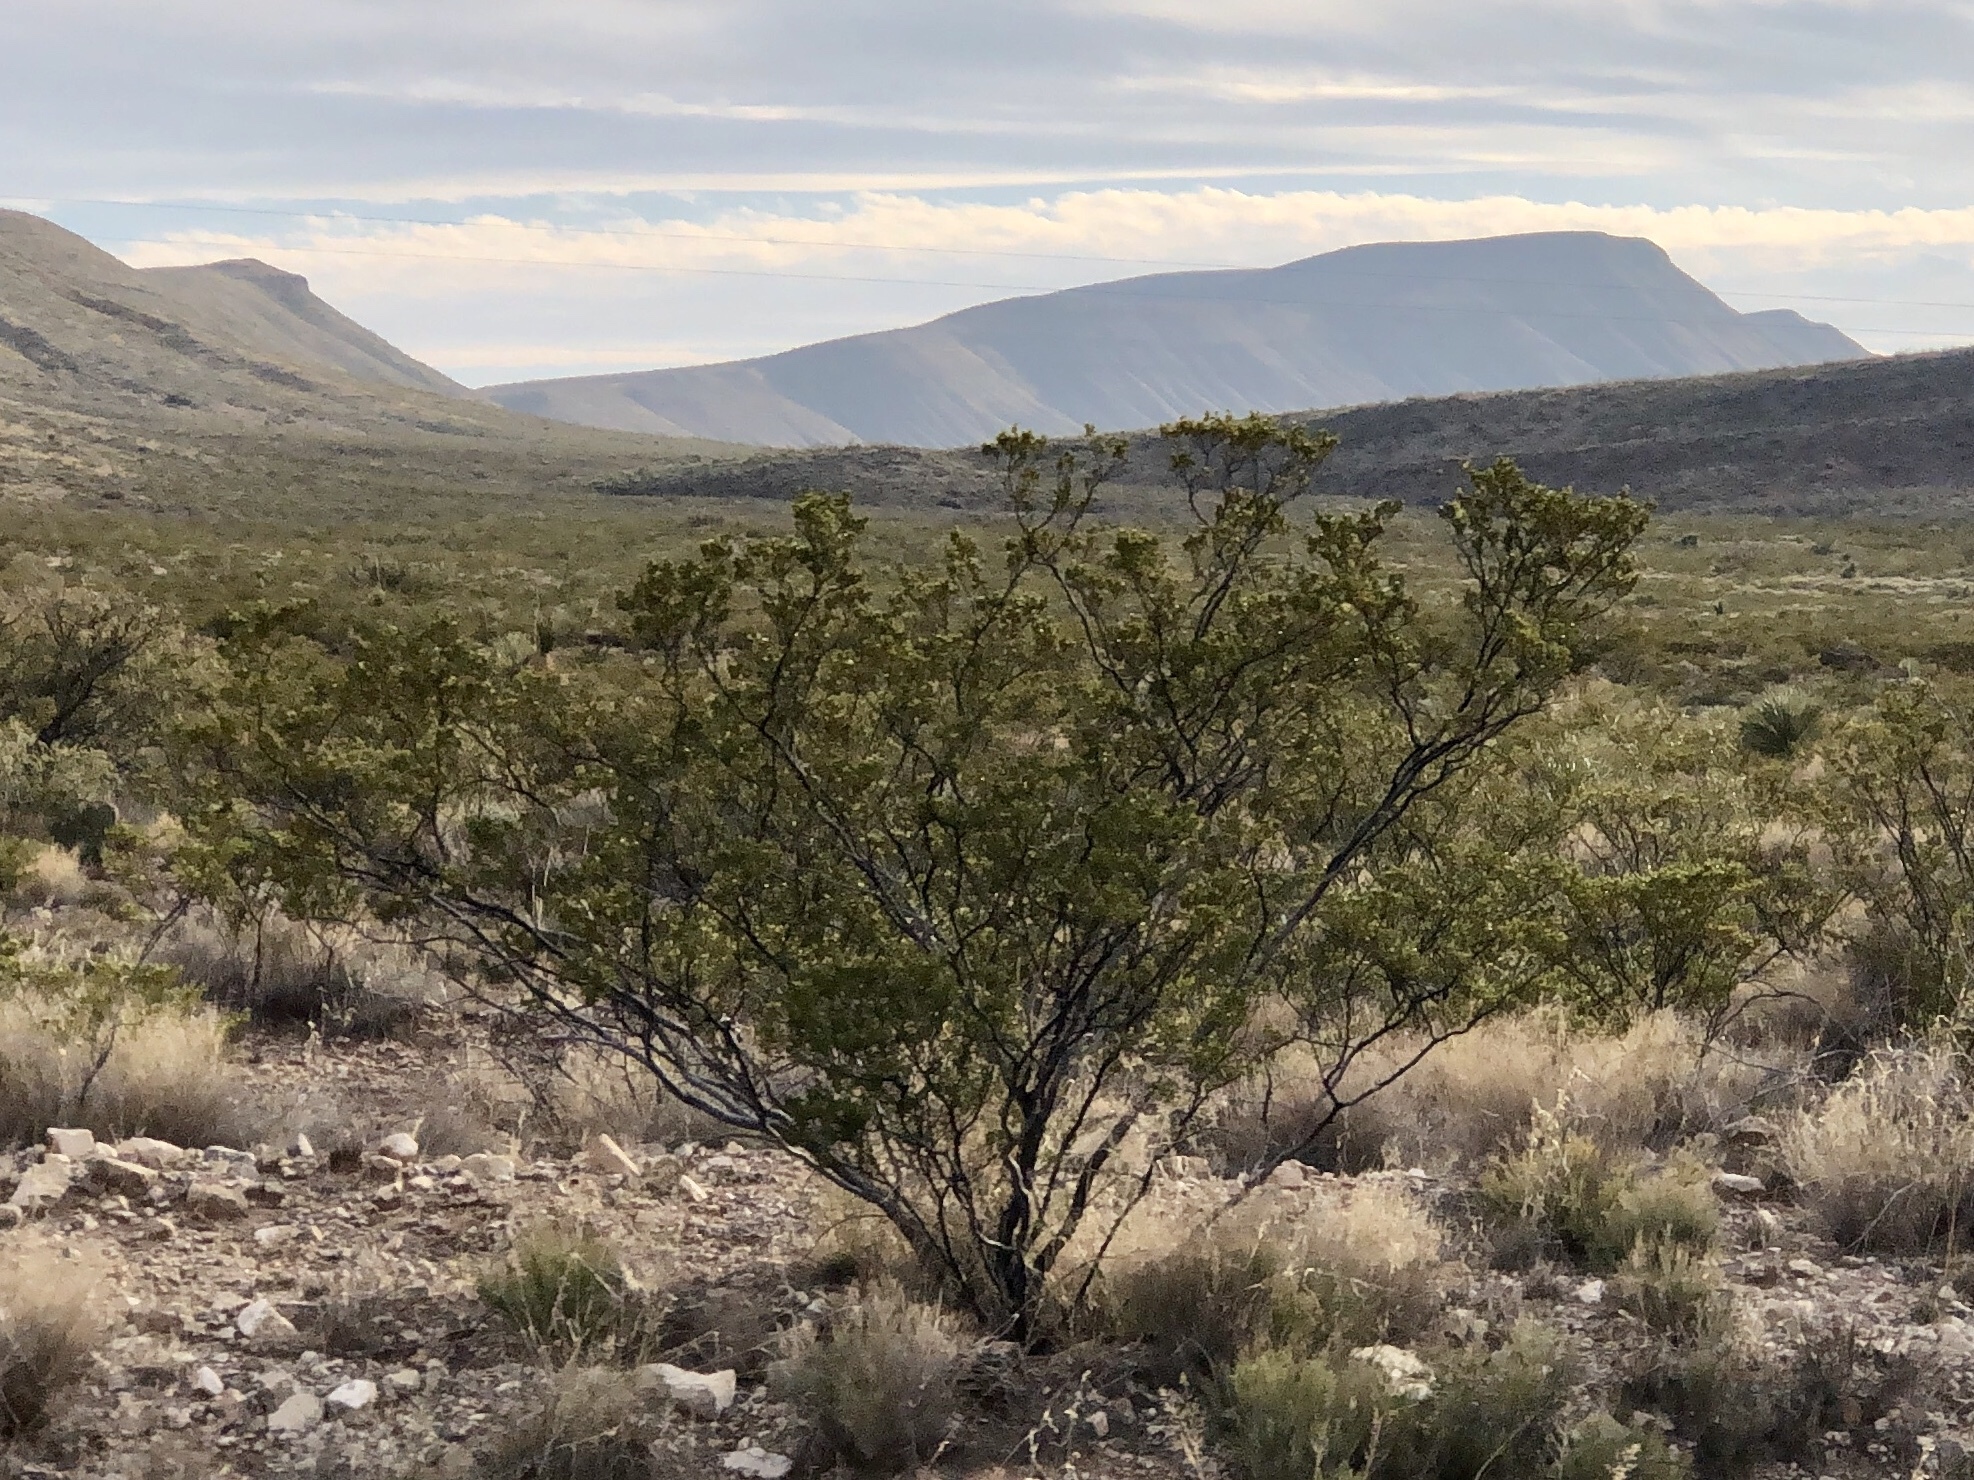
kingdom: Plantae
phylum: Tracheophyta
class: Magnoliopsida
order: Zygophyllales
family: Zygophyllaceae
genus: Larrea
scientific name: Larrea tridentata
